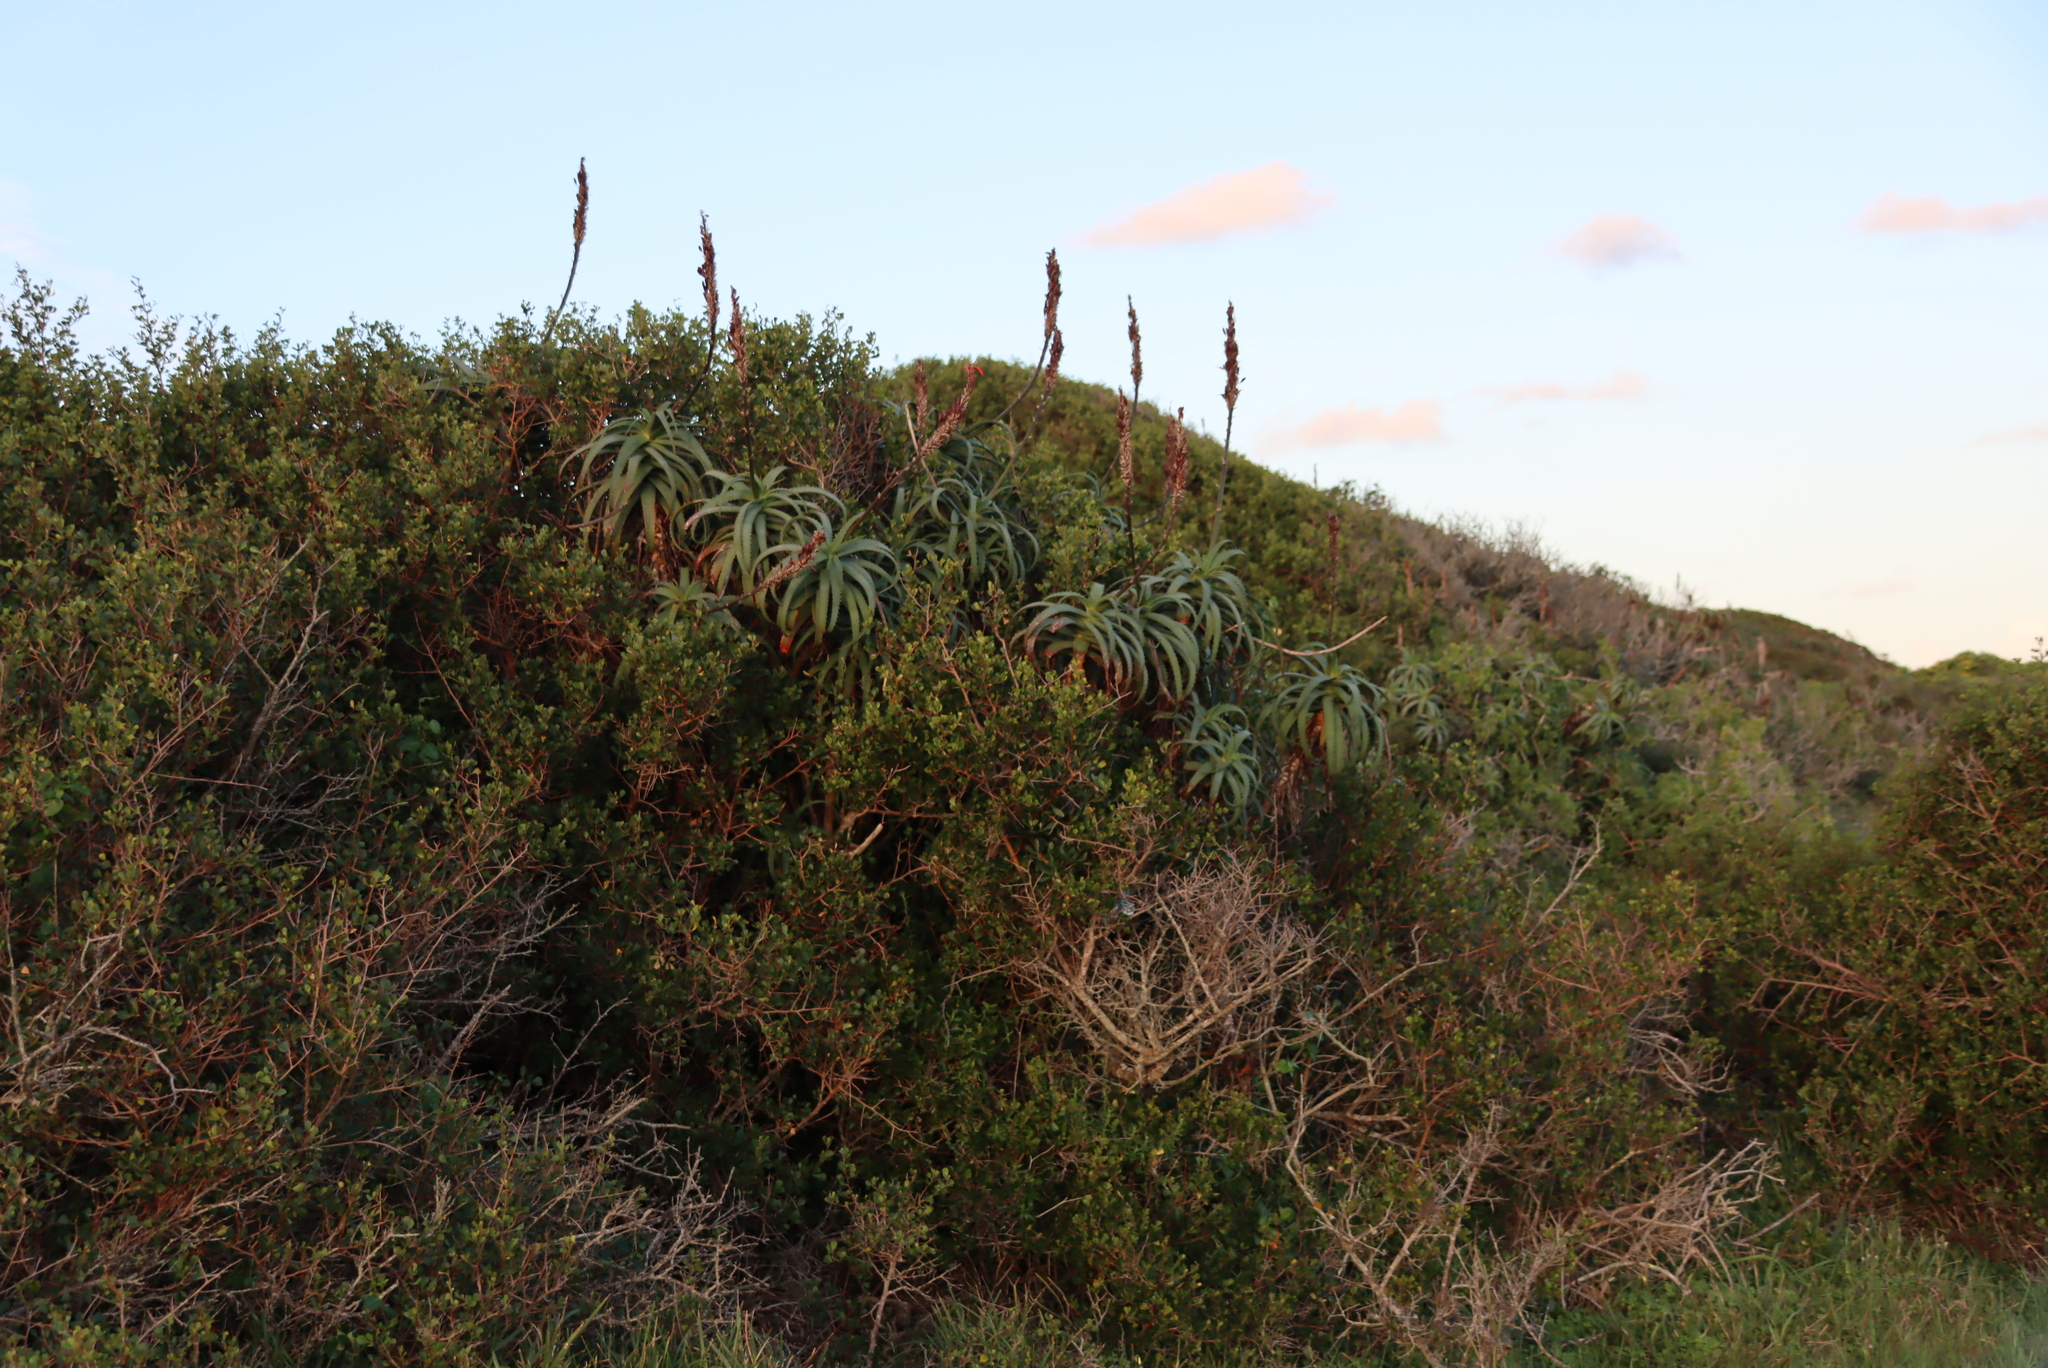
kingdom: Plantae
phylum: Tracheophyta
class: Liliopsida
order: Asparagales
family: Asphodelaceae
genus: Aloe
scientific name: Aloe arborescens
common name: Candelabra aloe
